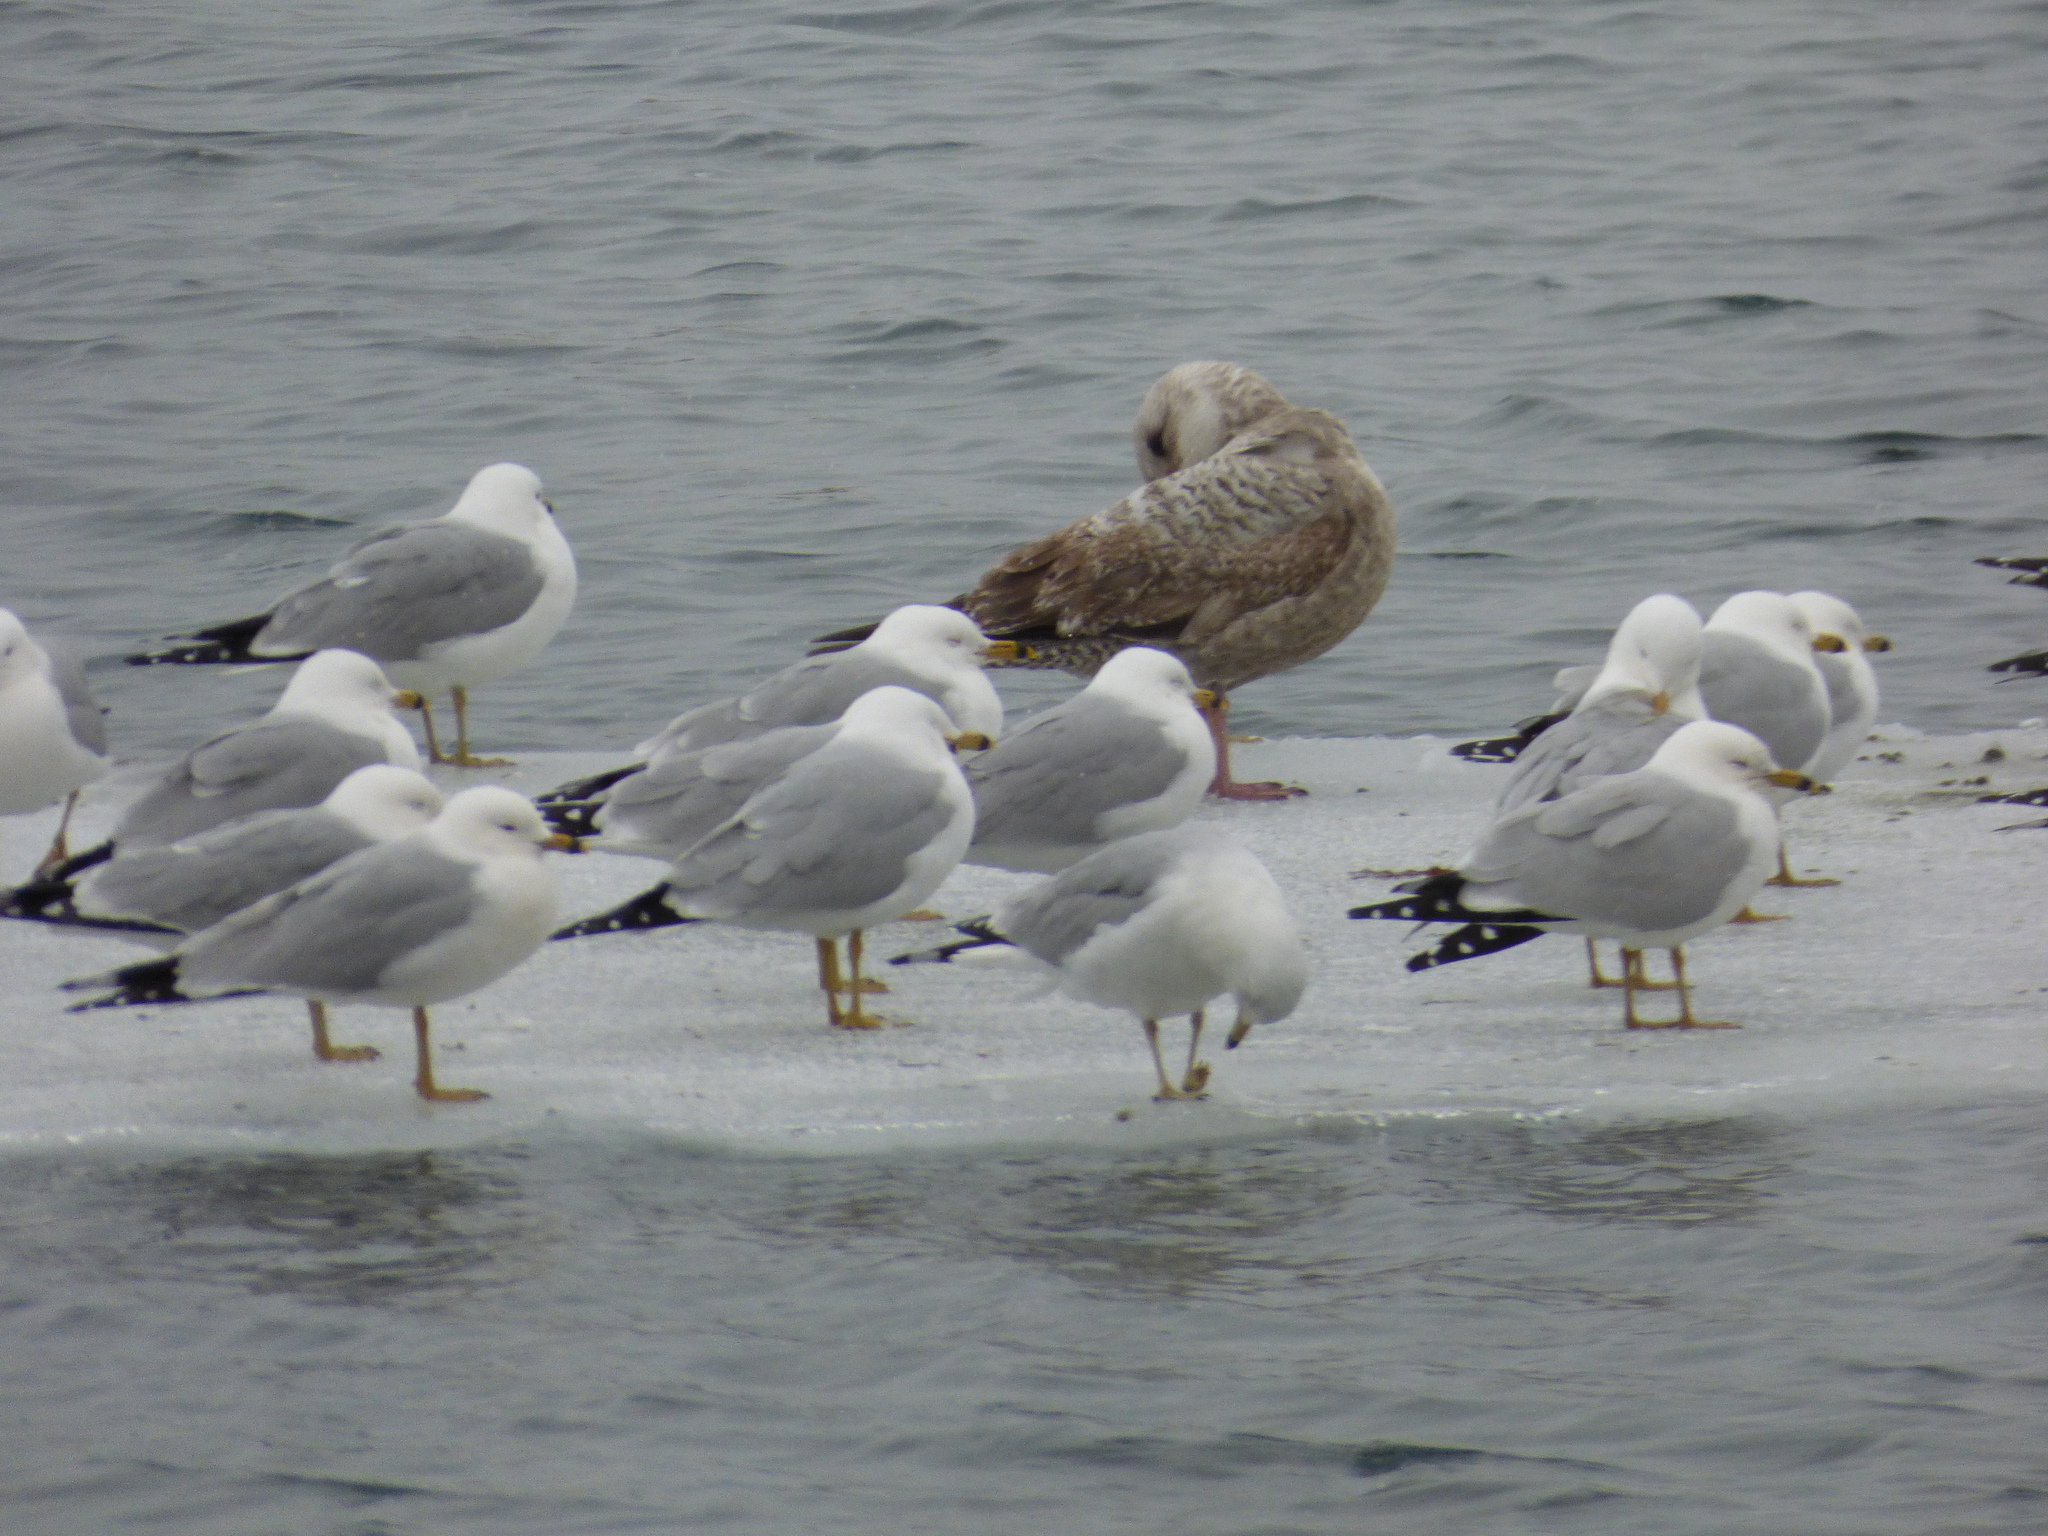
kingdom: Animalia
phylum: Chordata
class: Aves
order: Charadriiformes
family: Laridae
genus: Larus
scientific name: Larus argentatus
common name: Herring gull
